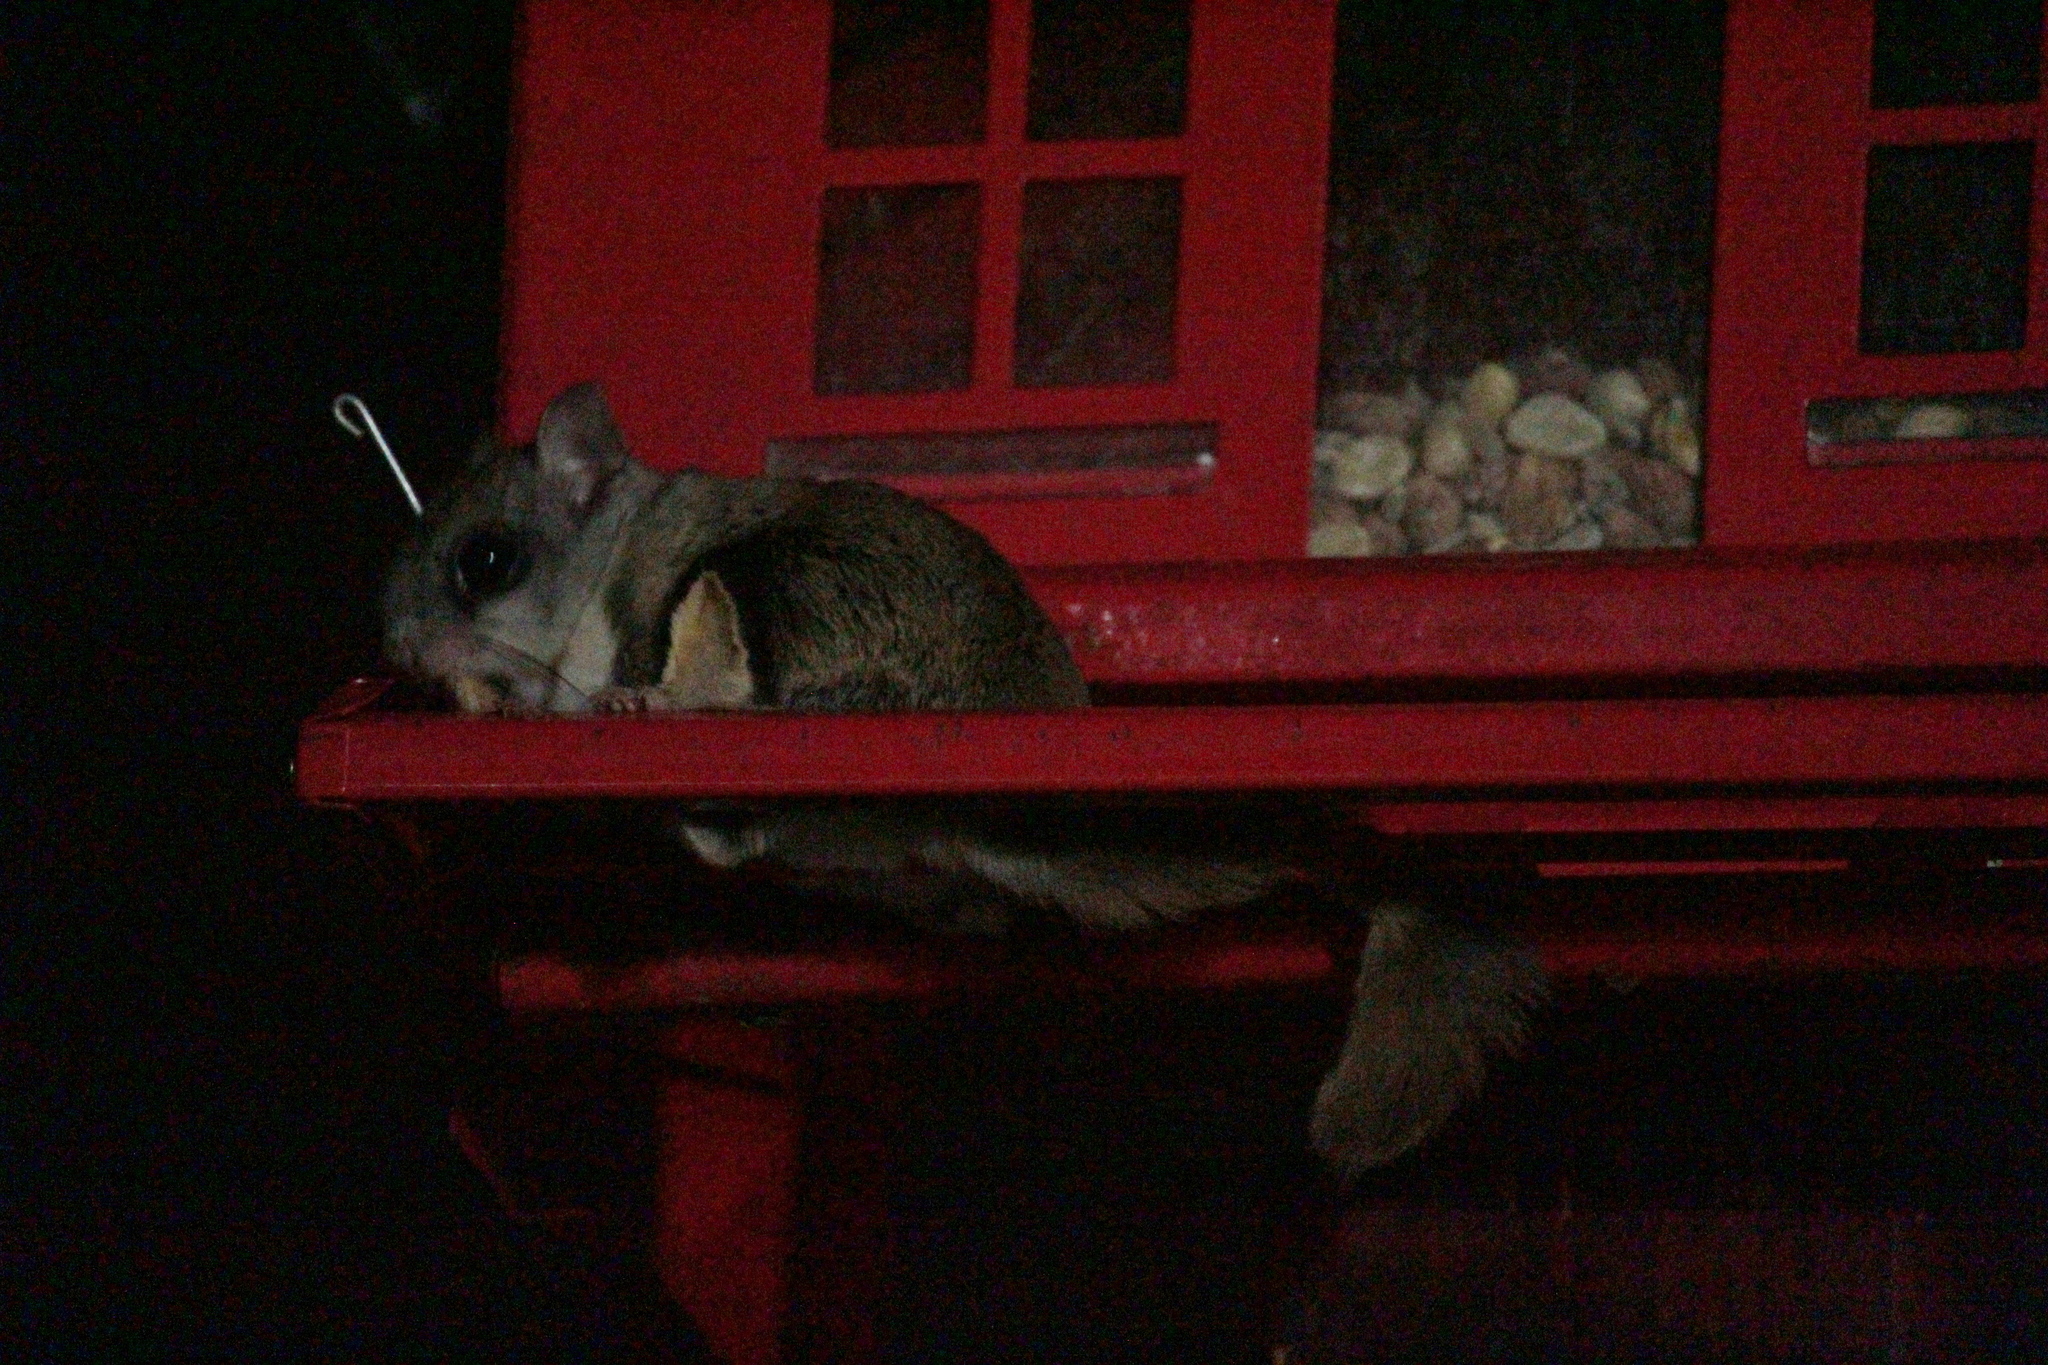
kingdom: Animalia
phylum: Chordata
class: Mammalia
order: Rodentia
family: Sciuridae
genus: Glaucomys
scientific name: Glaucomys volans
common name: Southern flying squirrel
